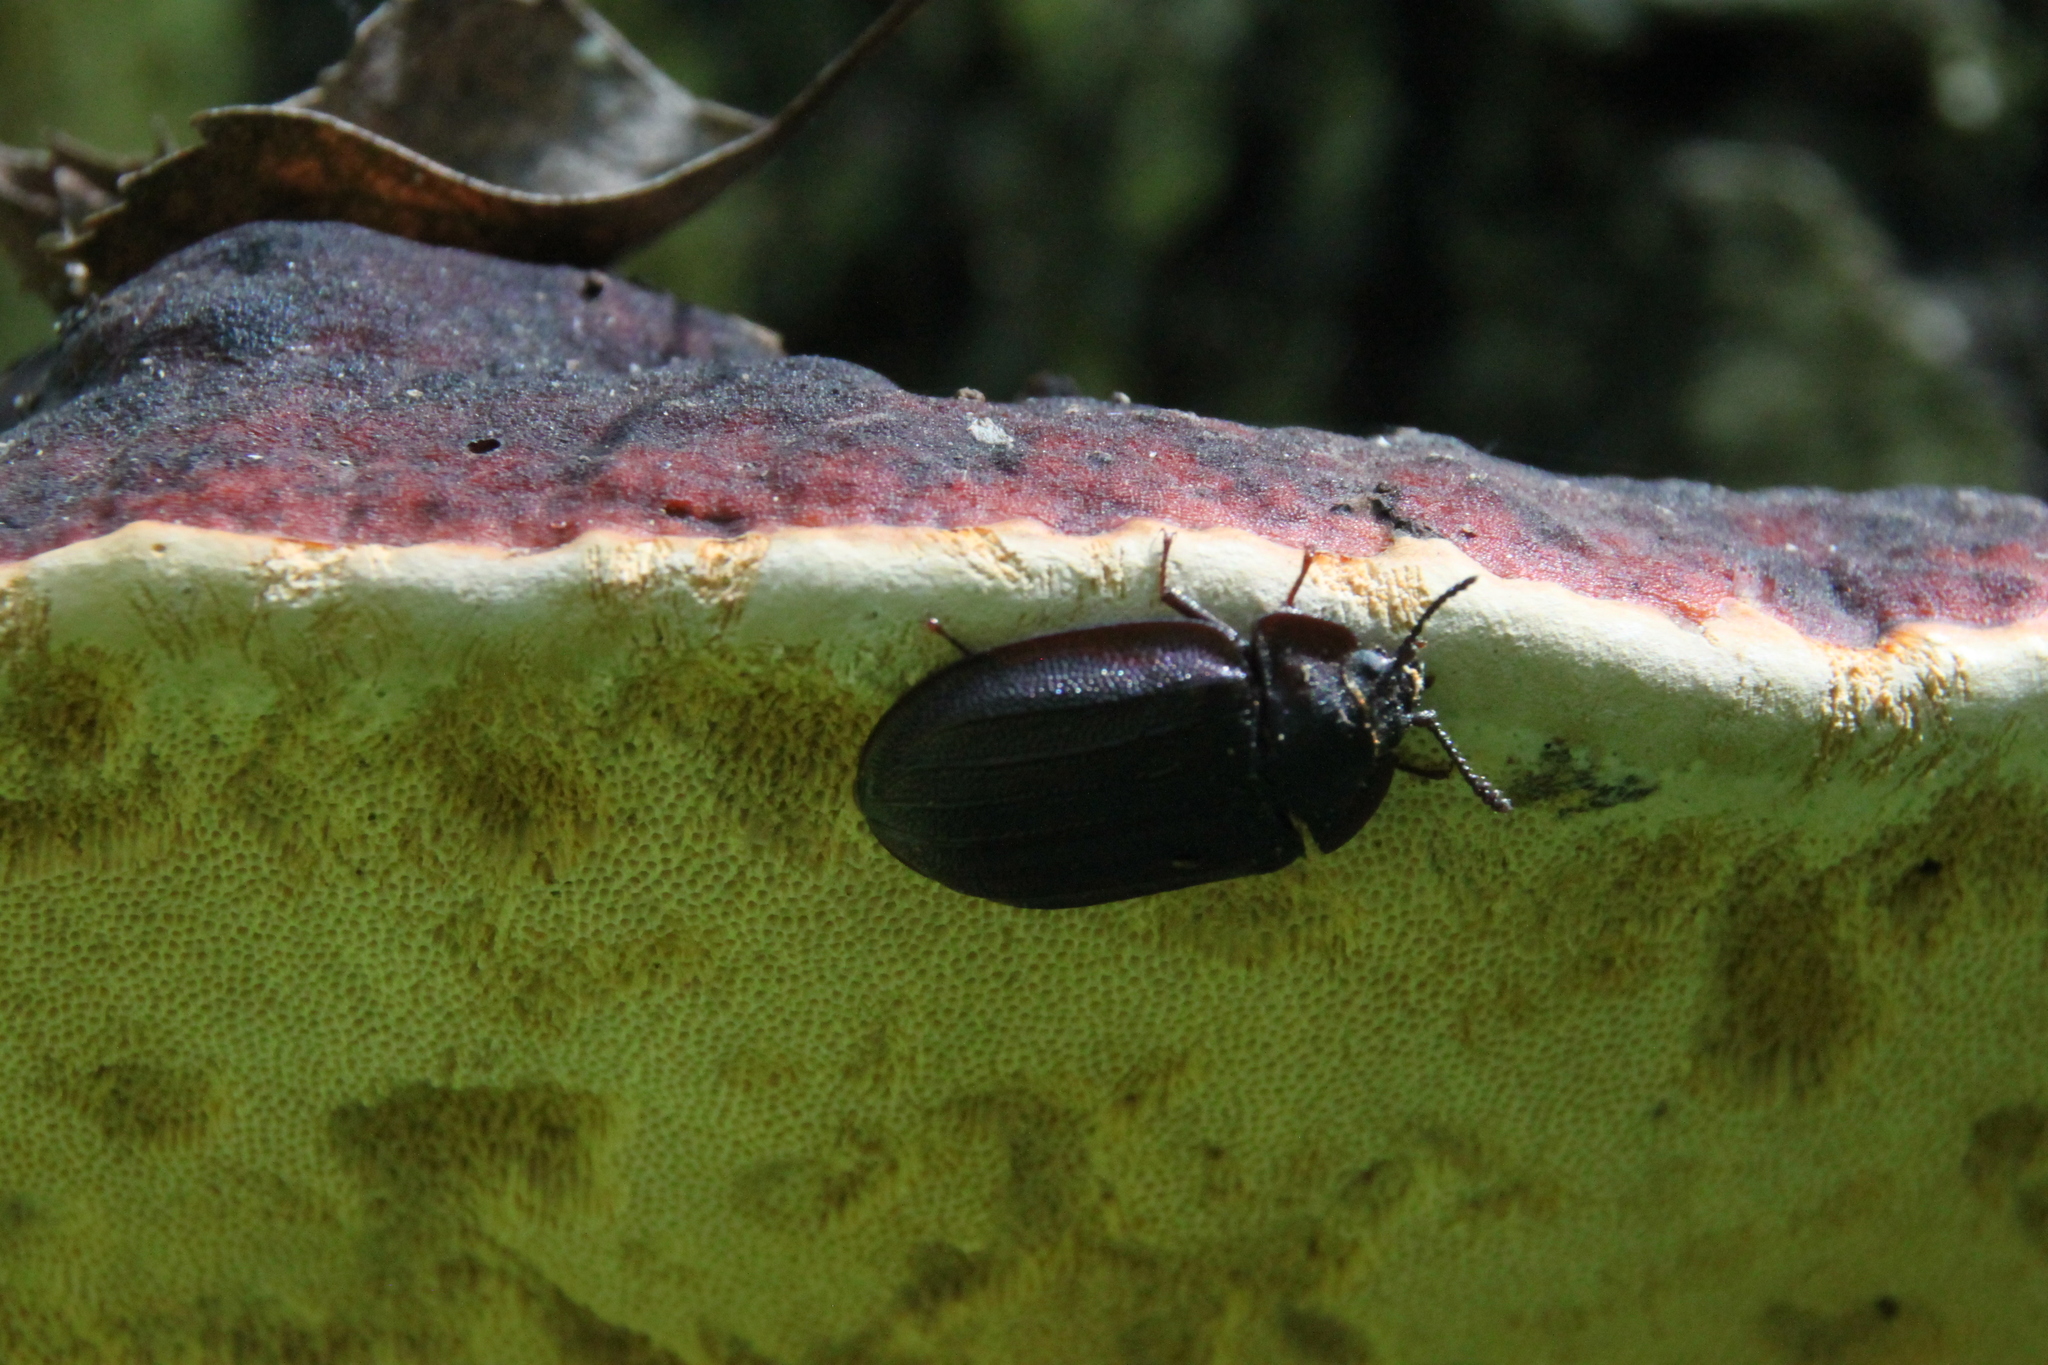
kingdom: Animalia
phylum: Arthropoda
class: Insecta
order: Coleoptera
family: Trogossitidae
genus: Peltis
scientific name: Peltis grossa
